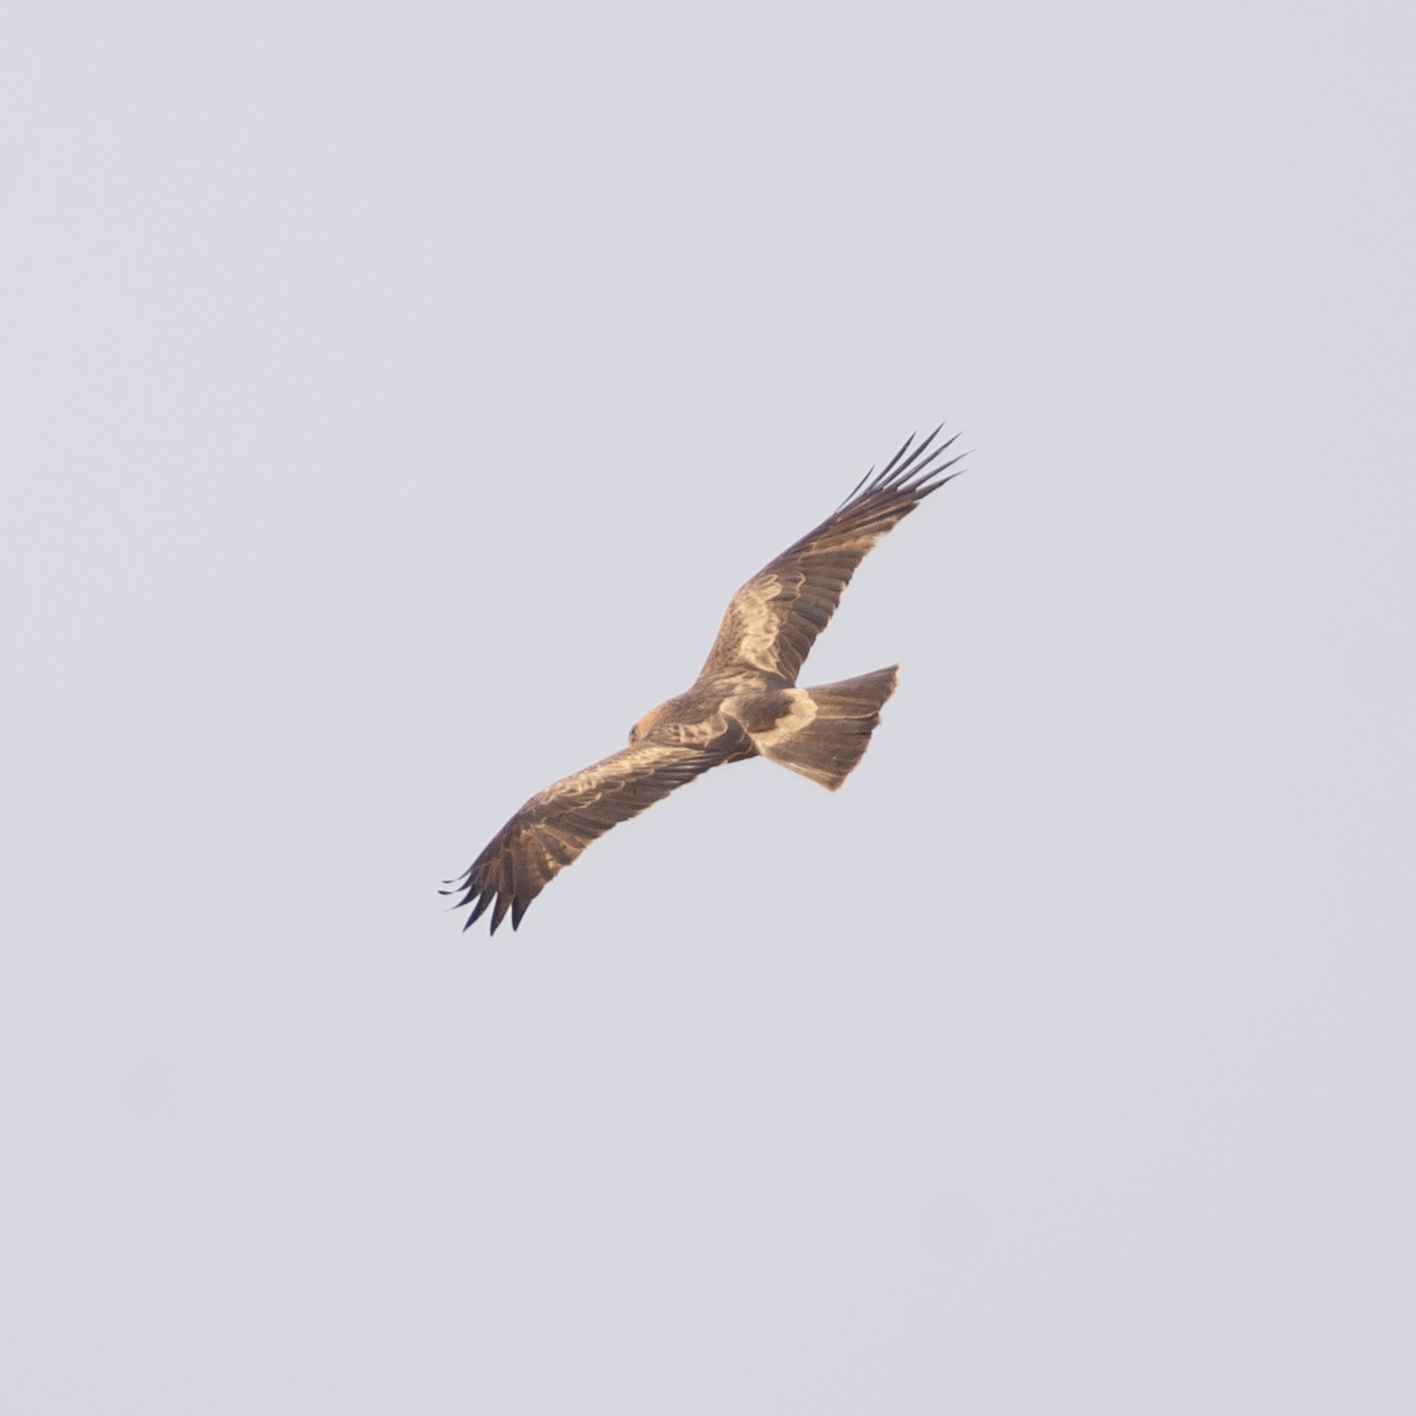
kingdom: Animalia
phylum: Chordata
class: Aves
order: Accipitriformes
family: Accipitridae
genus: Hieraaetus
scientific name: Hieraaetus pennatus
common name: Booted eagle
